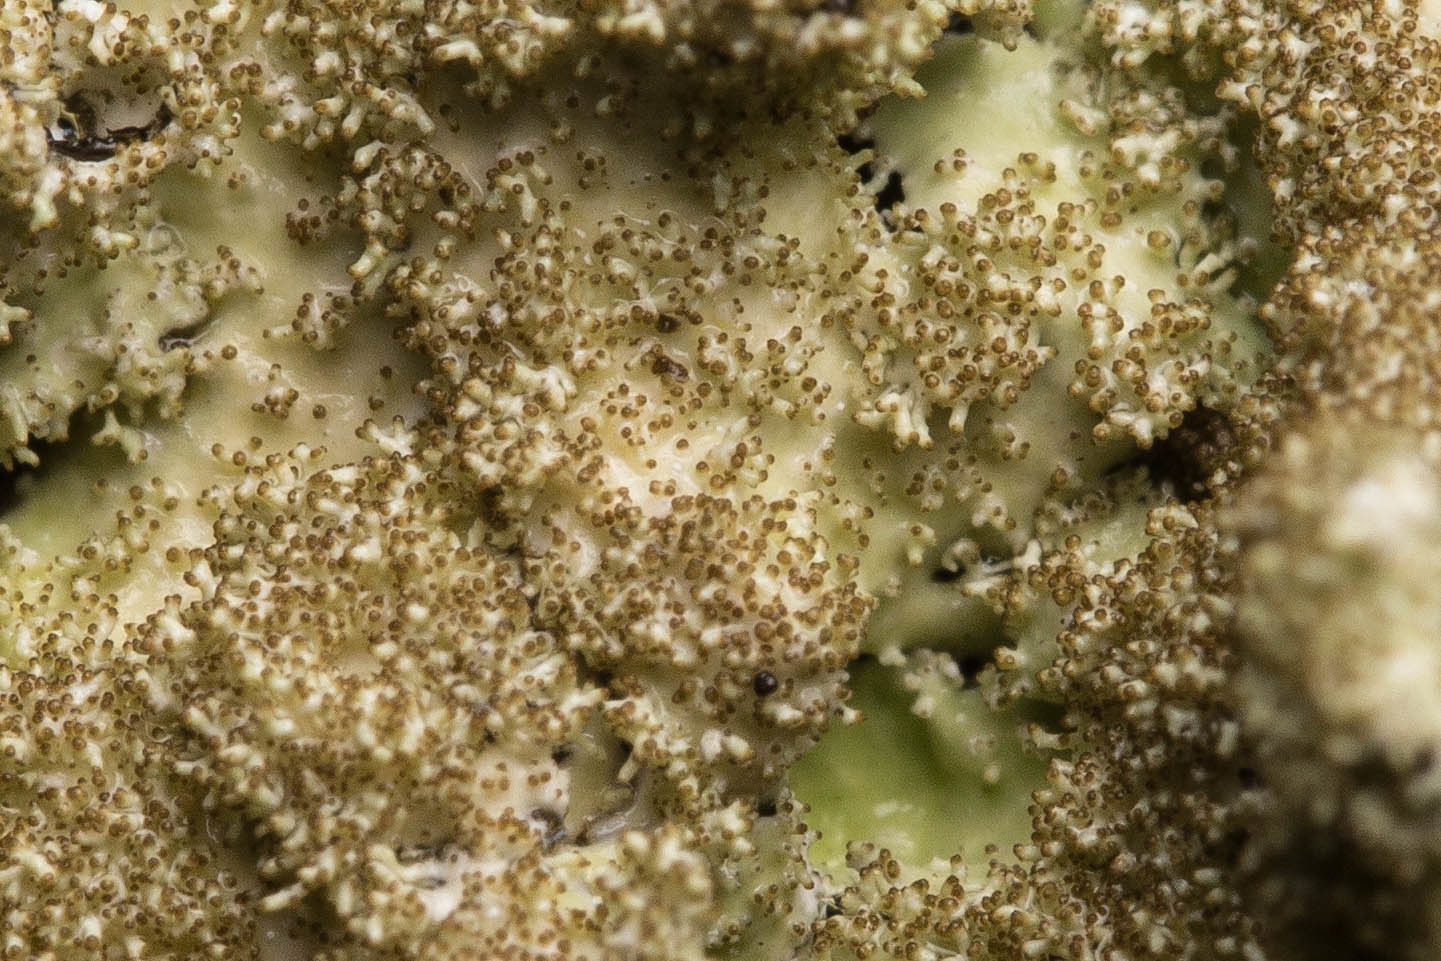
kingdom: Fungi
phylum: Ascomycota
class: Lecanoromycetes
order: Lecanorales
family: Parmeliaceae
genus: Punctelia
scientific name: Punctelia rudecta
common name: Rough speckled shield lichen
